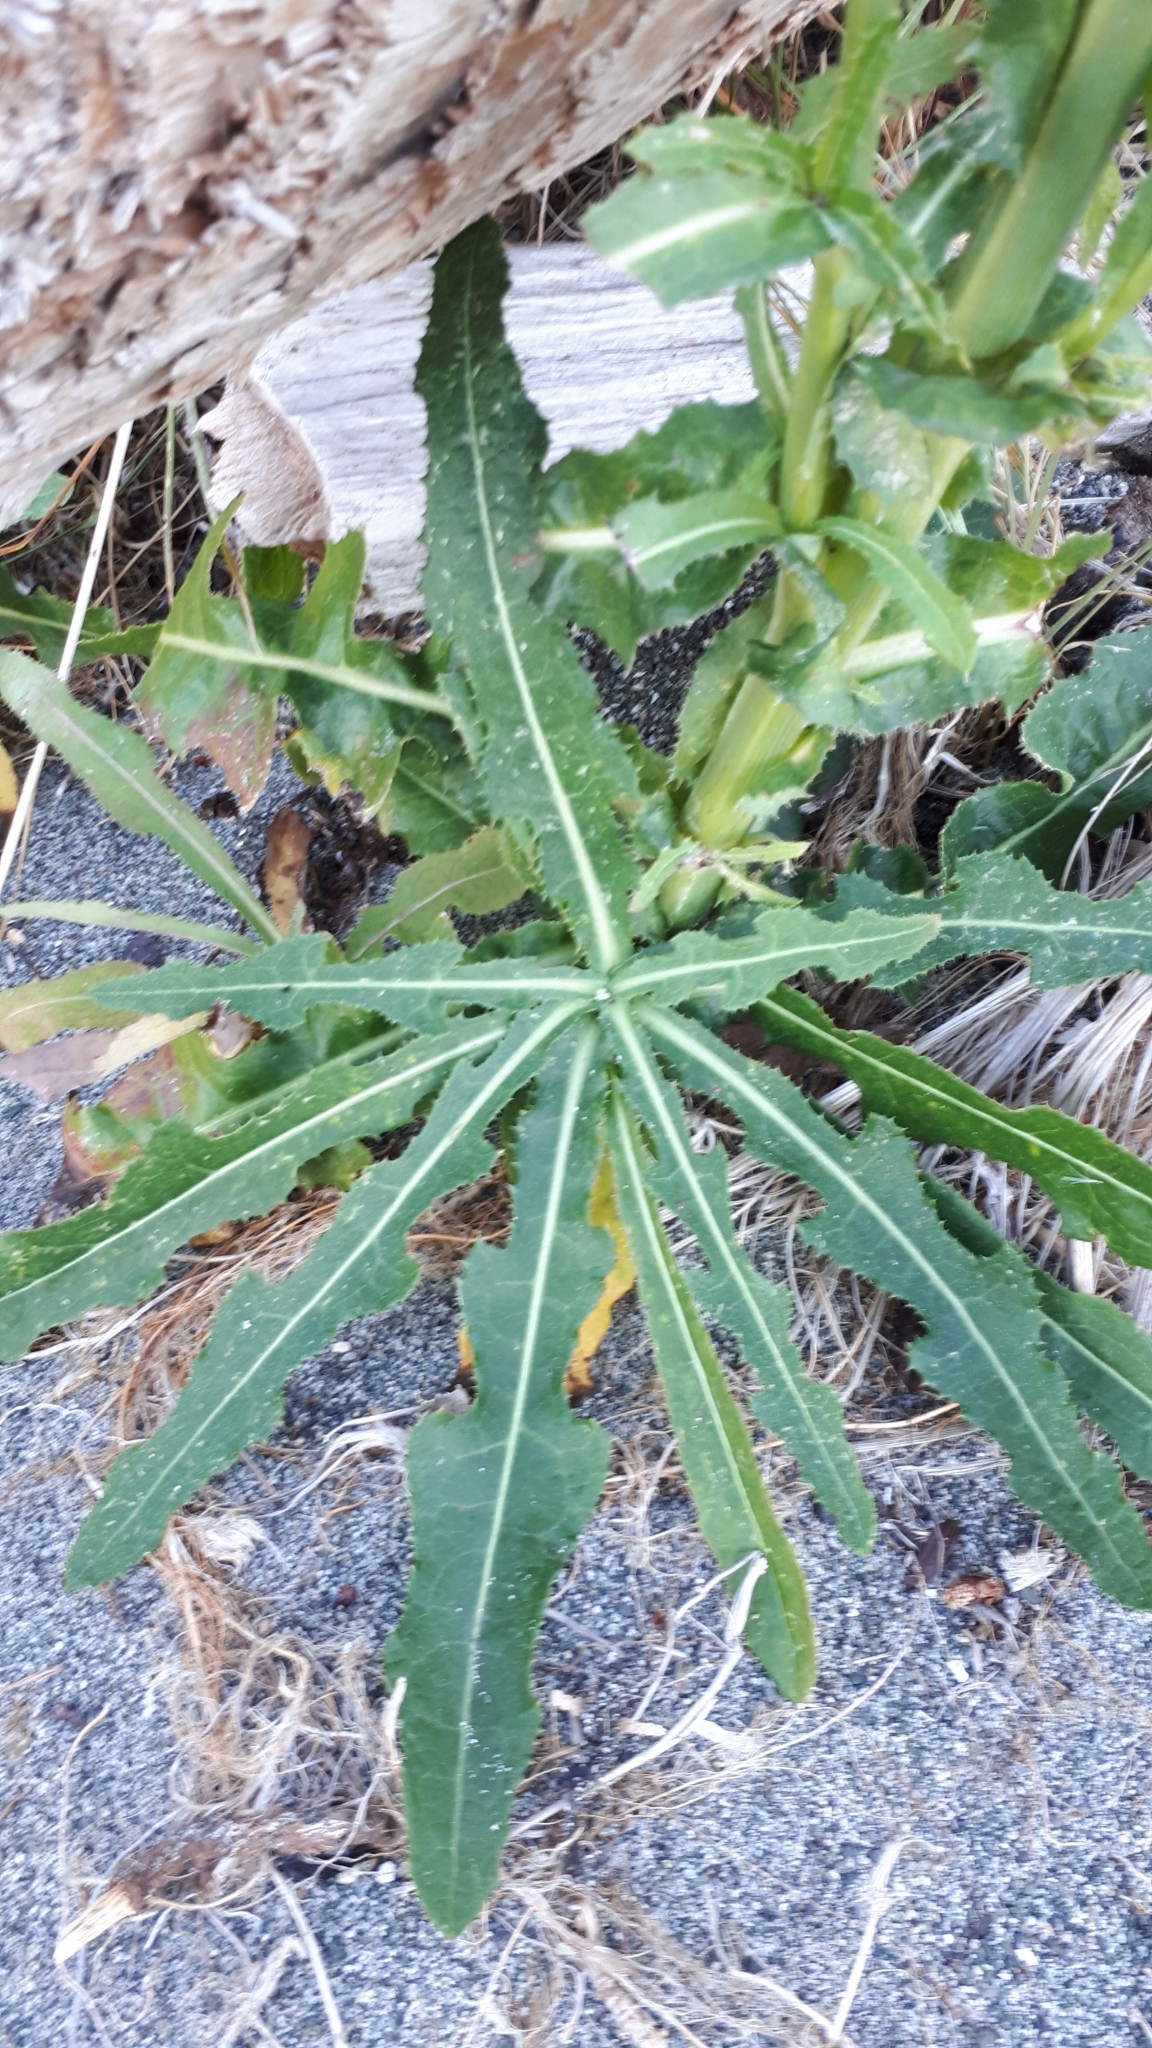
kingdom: Plantae
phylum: Tracheophyta
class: Magnoliopsida
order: Asterales
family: Asteraceae
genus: Sonchus
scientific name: Sonchus arvensis
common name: Perennial sow-thistle
